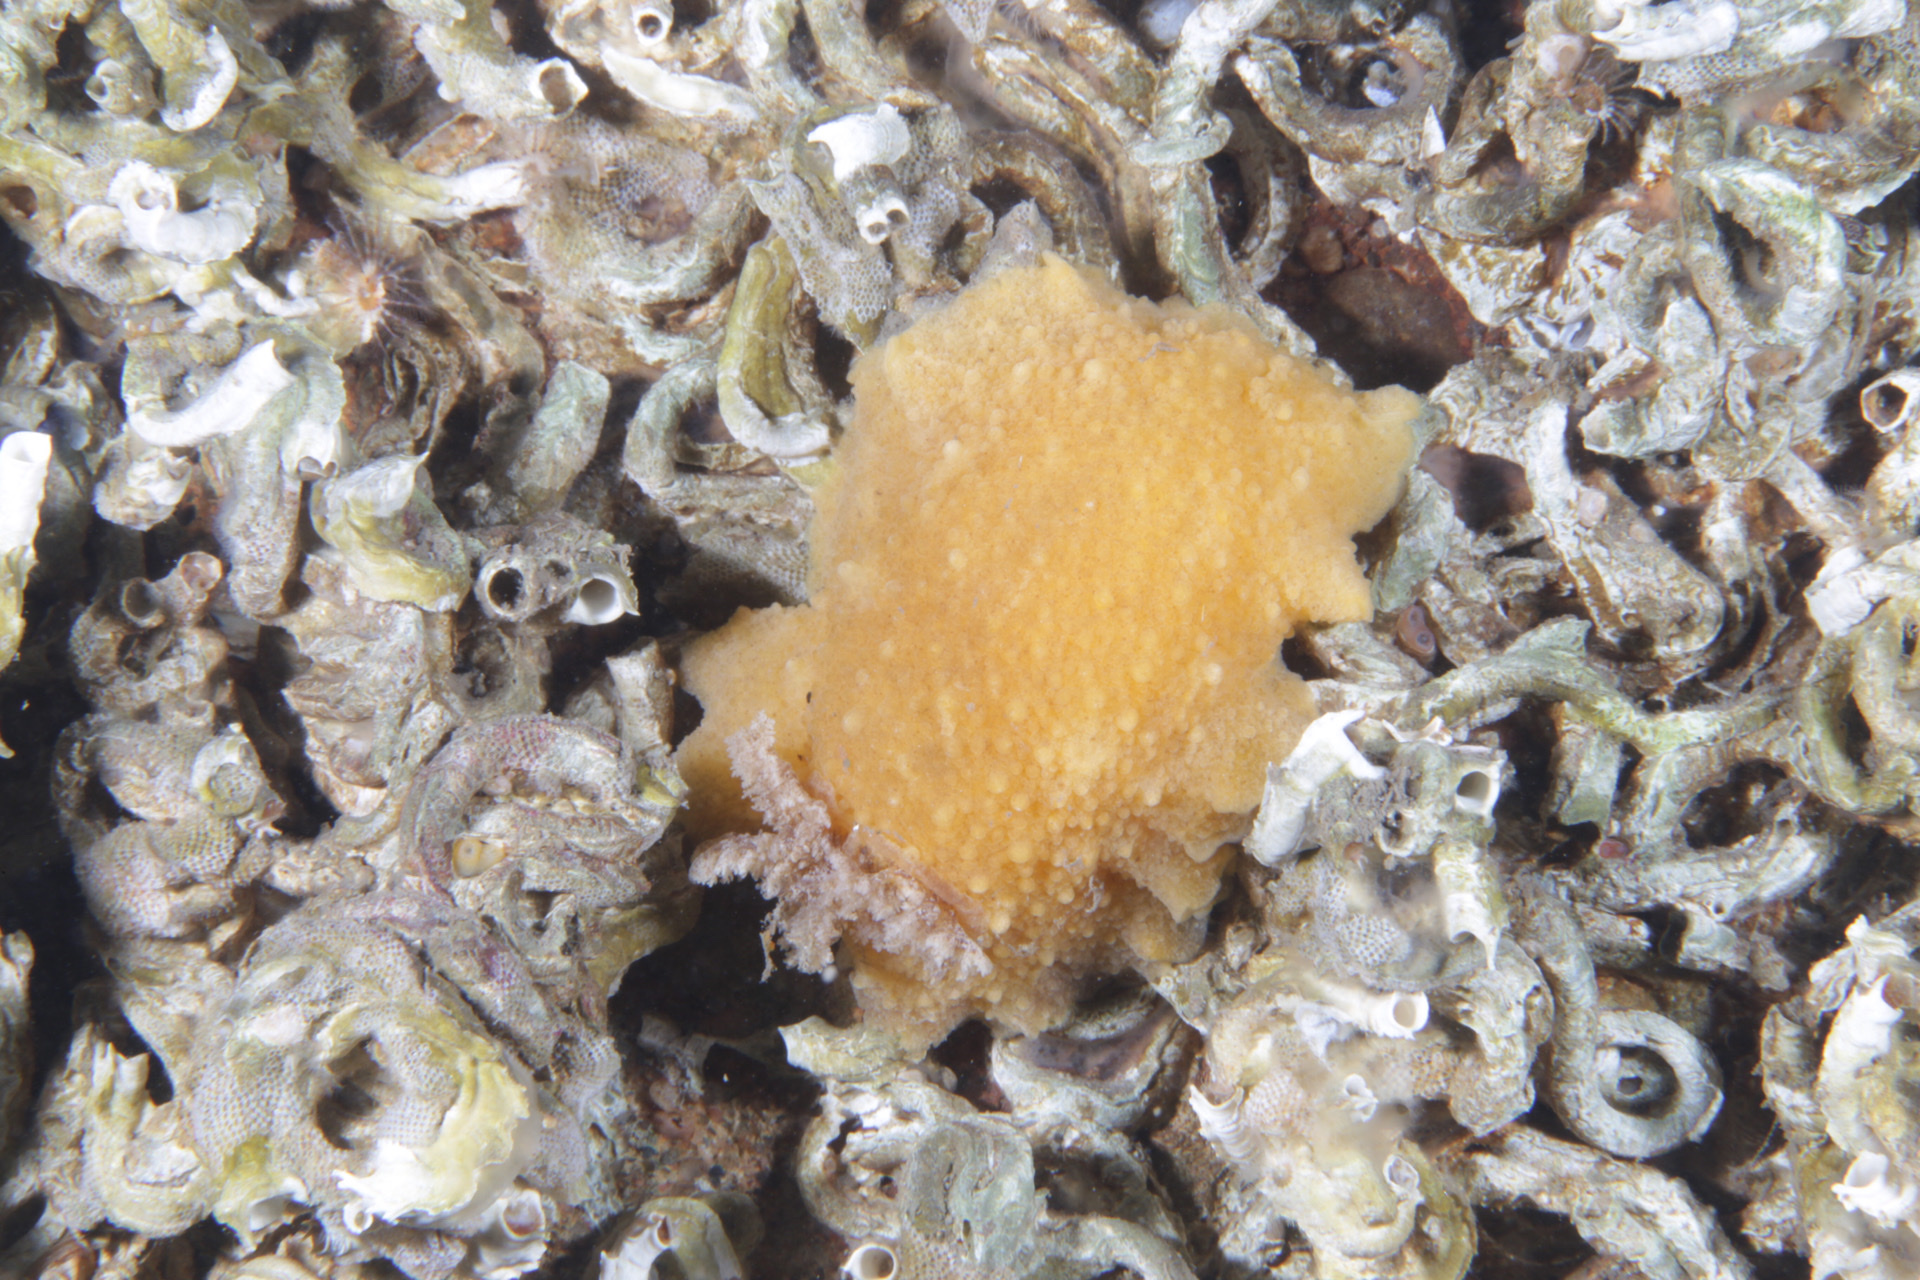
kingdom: Animalia
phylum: Mollusca
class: Gastropoda
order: Nudibranchia
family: Discodorididae
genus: Geitodoris
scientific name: Geitodoris planata
